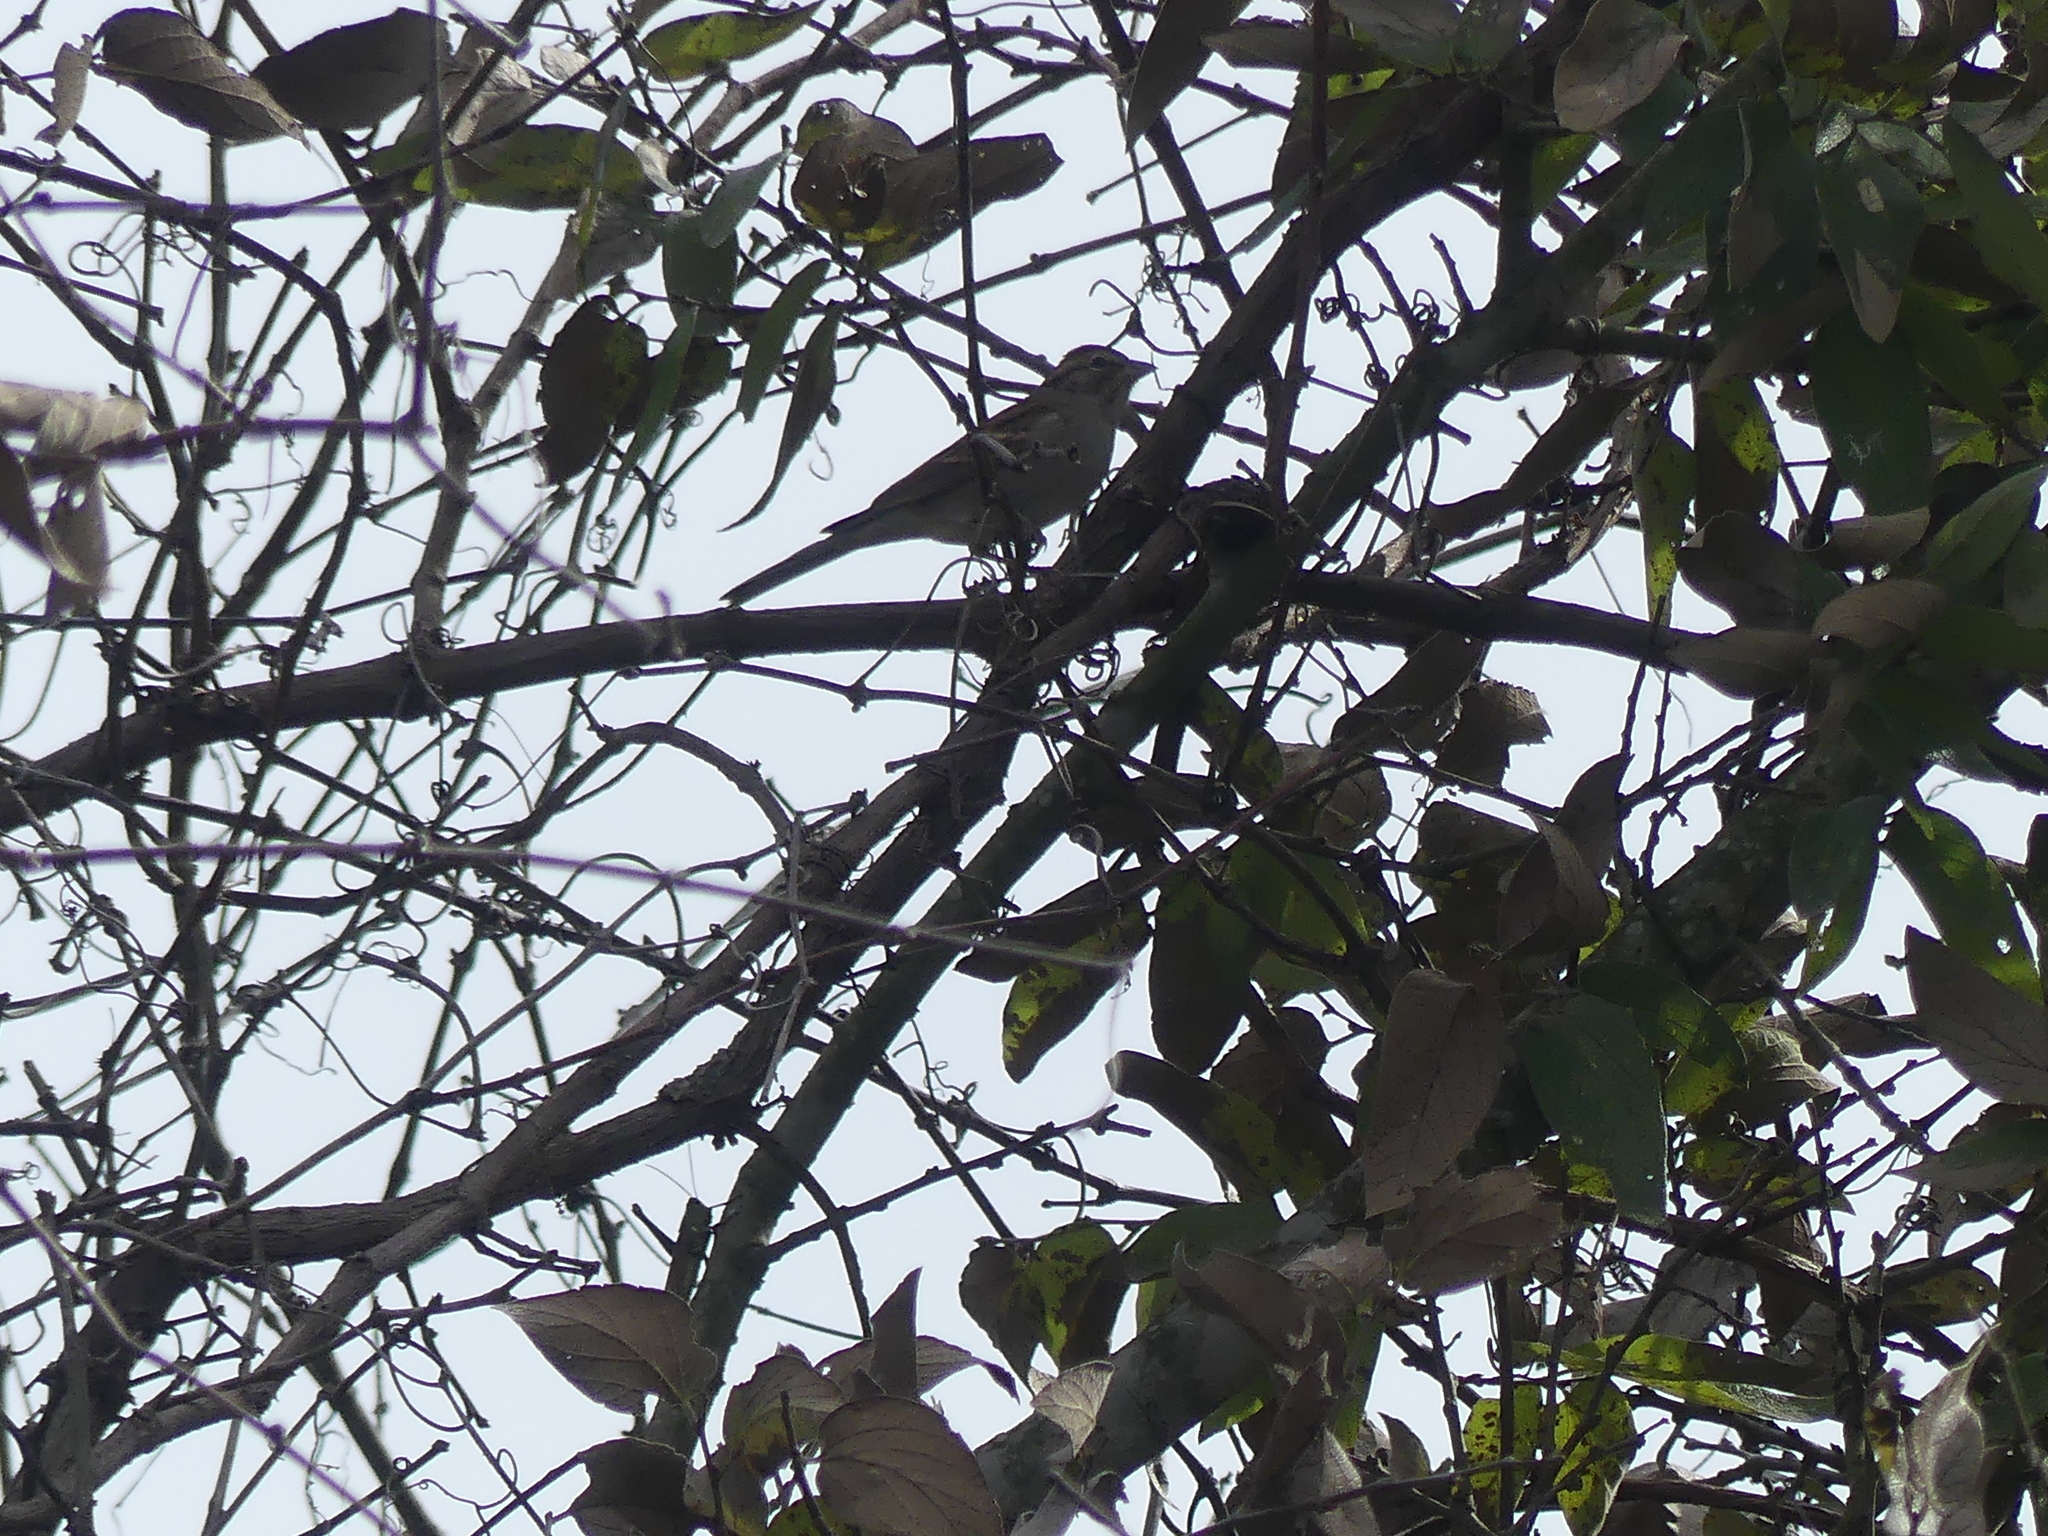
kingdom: Animalia
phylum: Chordata
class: Aves
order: Passeriformes
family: Passerellidae
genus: Spizella
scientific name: Spizella passerina
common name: Chipping sparrow
